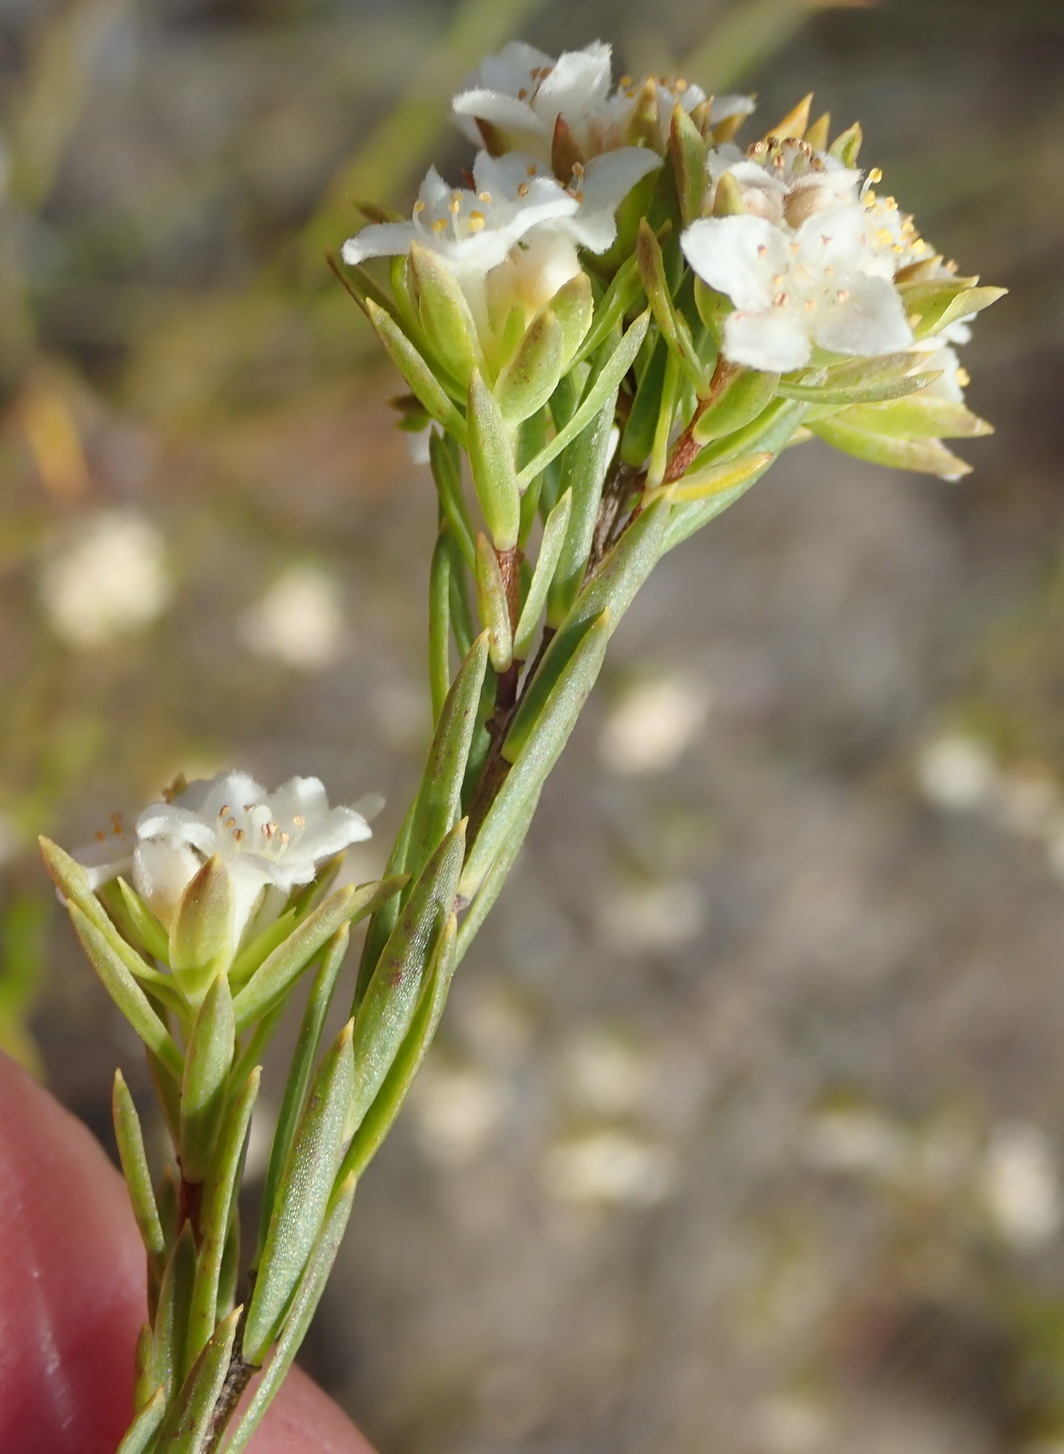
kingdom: Plantae
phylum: Tracheophyta
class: Magnoliopsida
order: Malvales
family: Thymelaeaceae
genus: Lachnaea
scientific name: Lachnaea diosmoides
